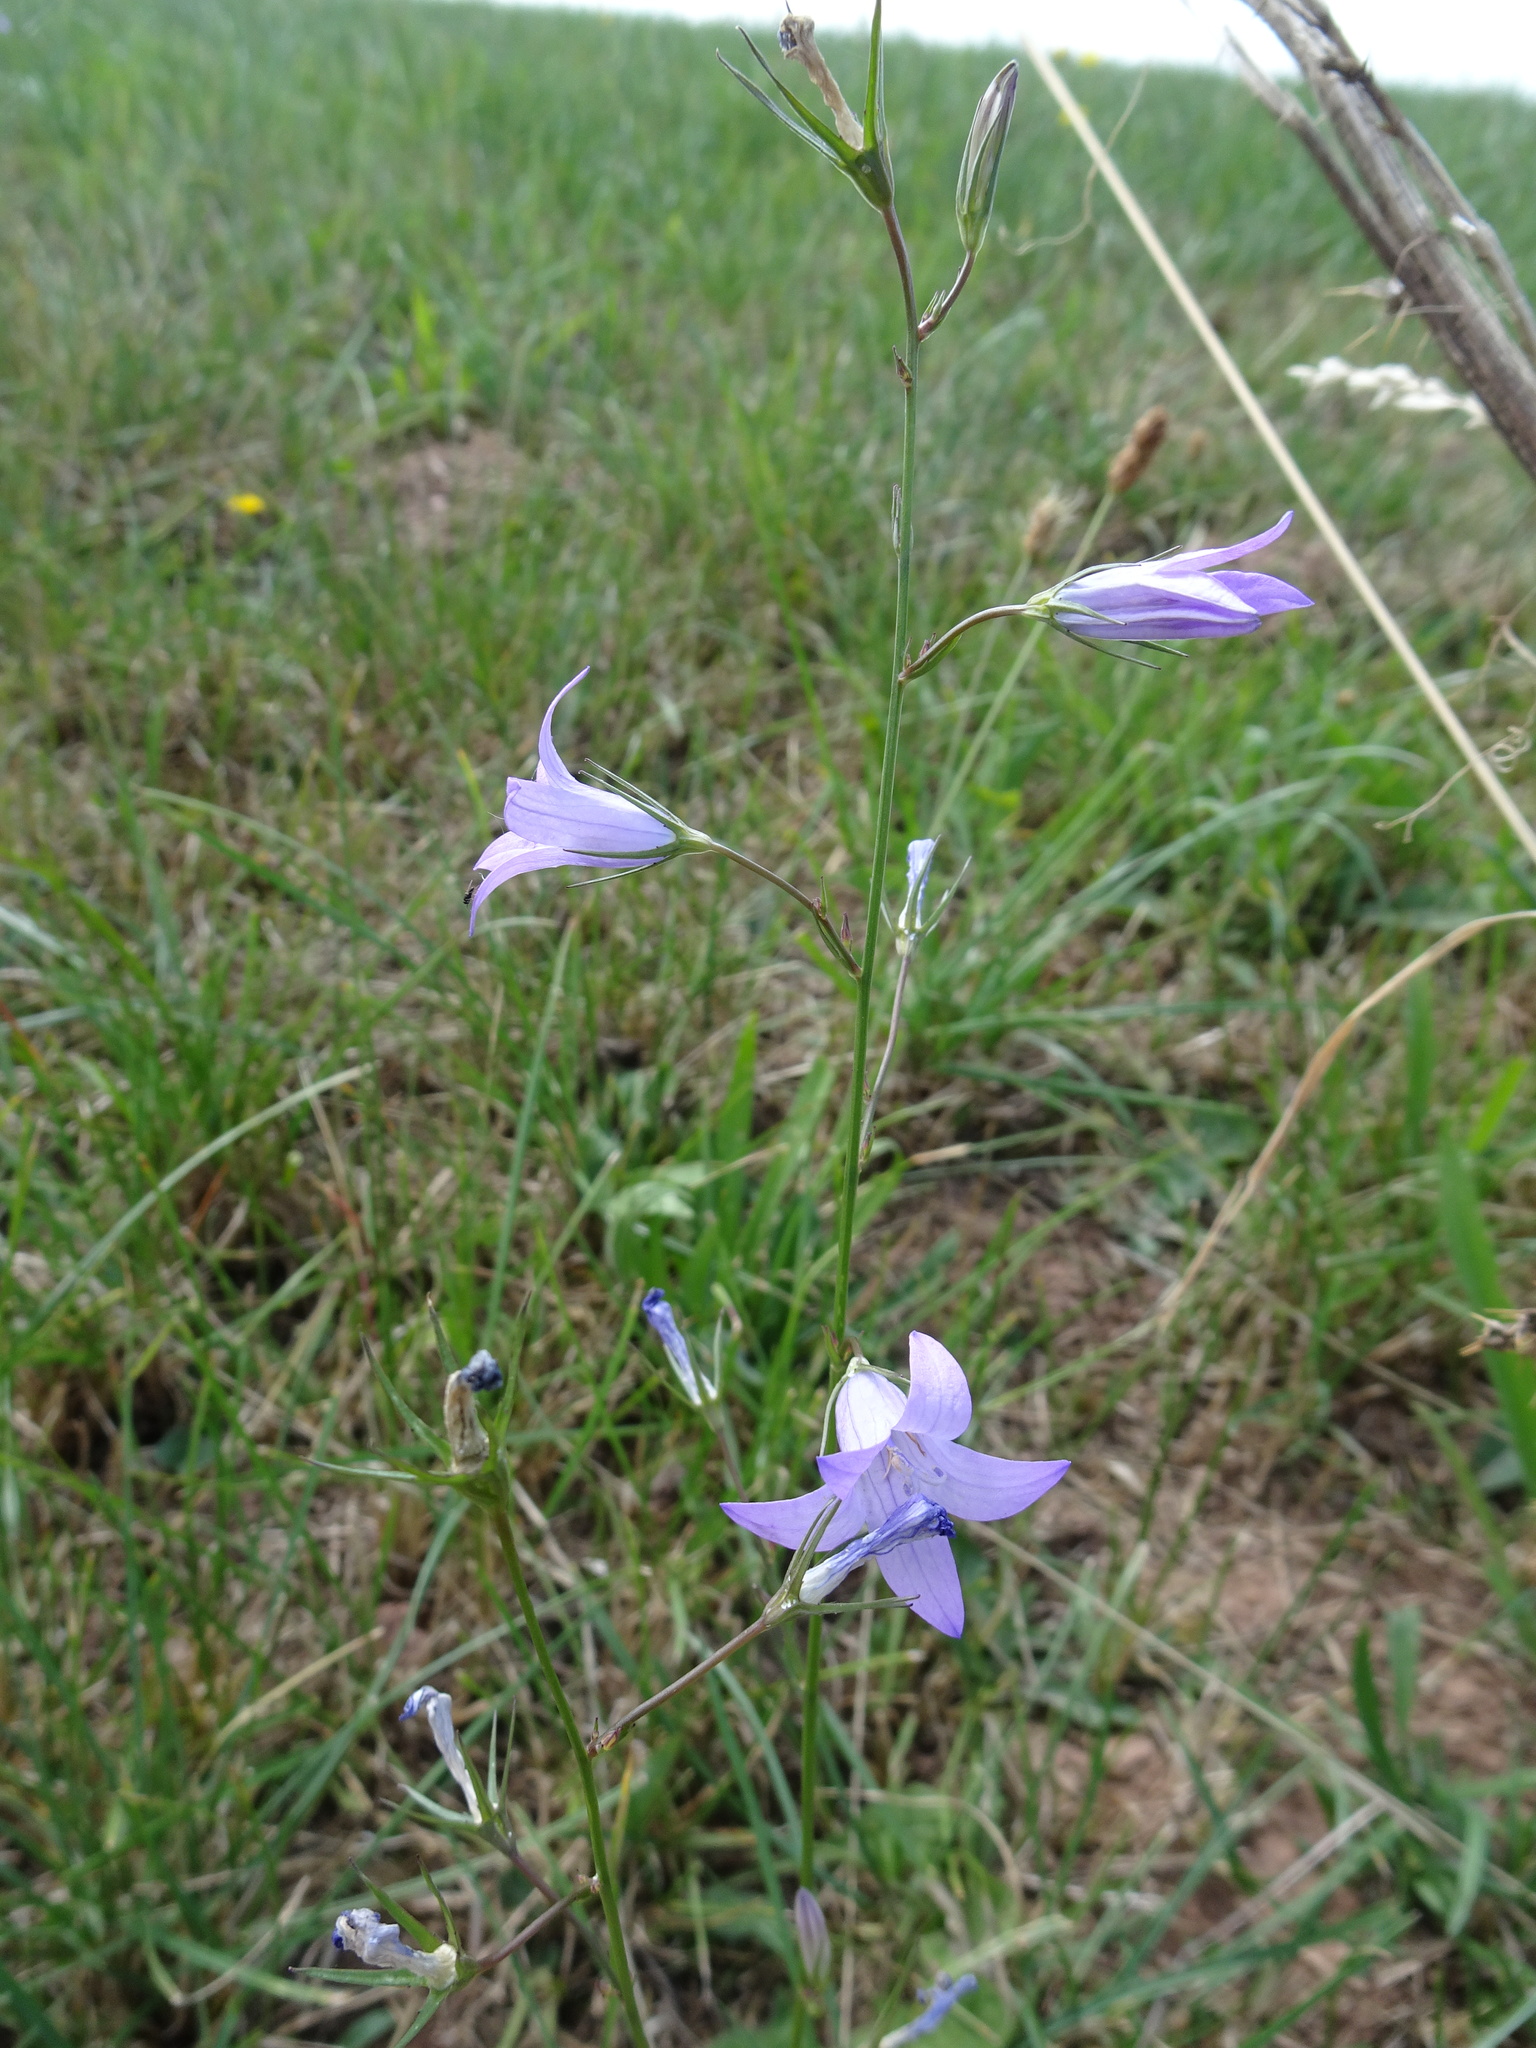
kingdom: Plantae
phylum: Tracheophyta
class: Magnoliopsida
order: Asterales
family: Campanulaceae
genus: Campanula
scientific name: Campanula rapunculus
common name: Rampion bellflower
